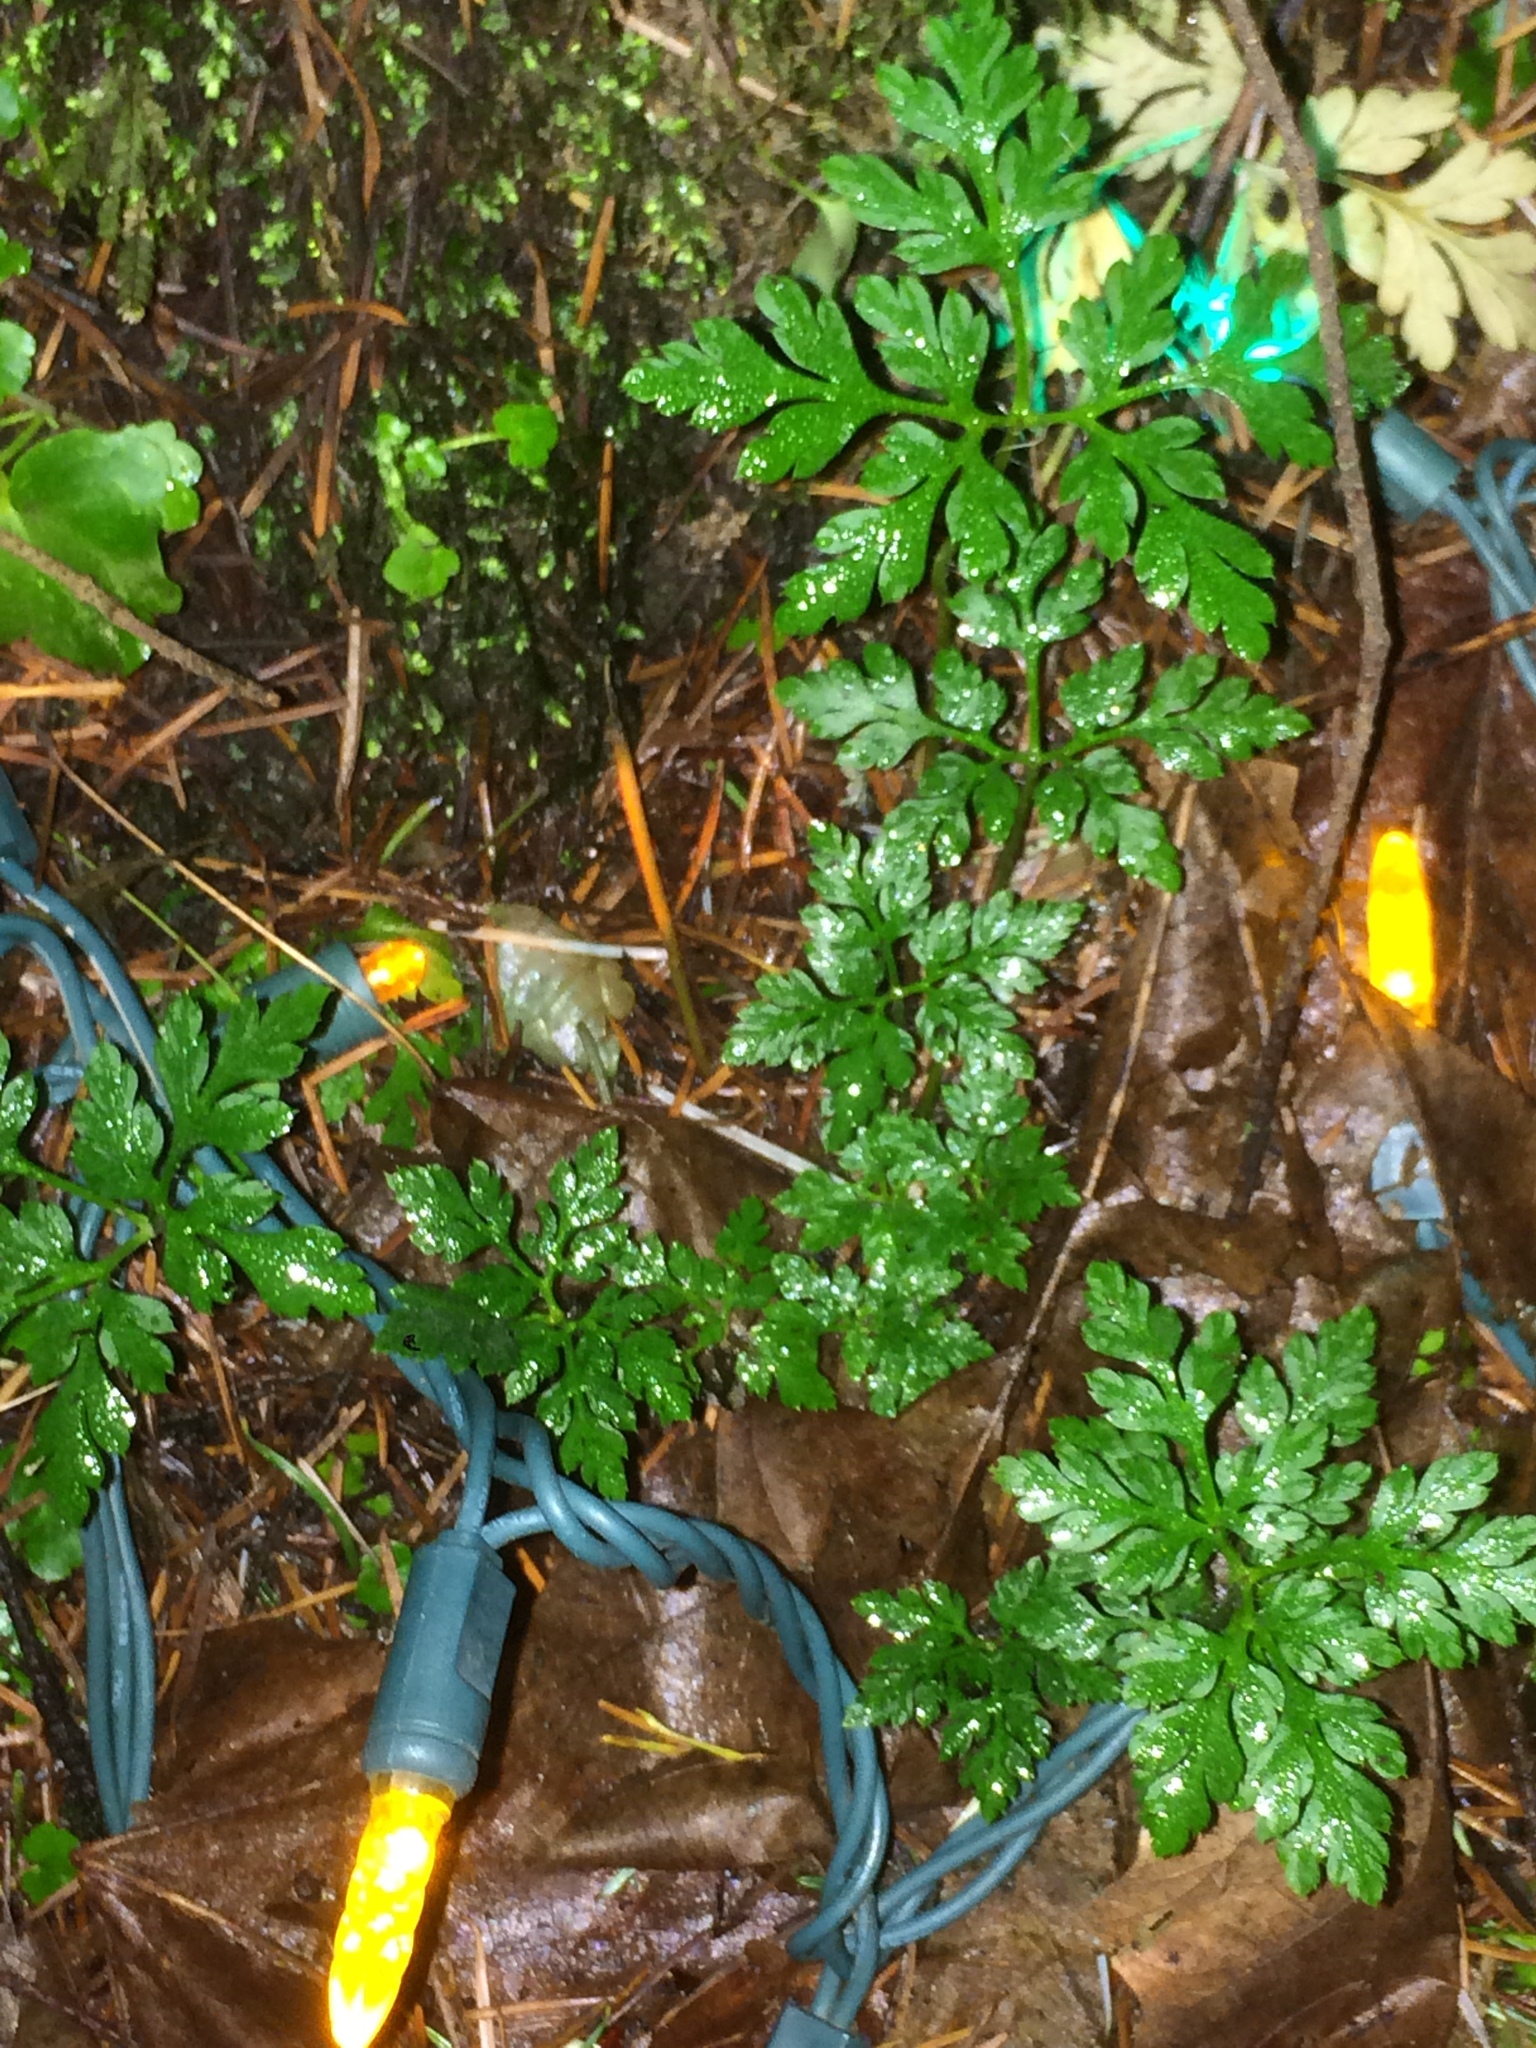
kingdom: Plantae
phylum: Tracheophyta
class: Magnoliopsida
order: Geraniales
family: Geraniaceae
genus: Geranium
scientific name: Geranium robertianum
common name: Herb-robert
